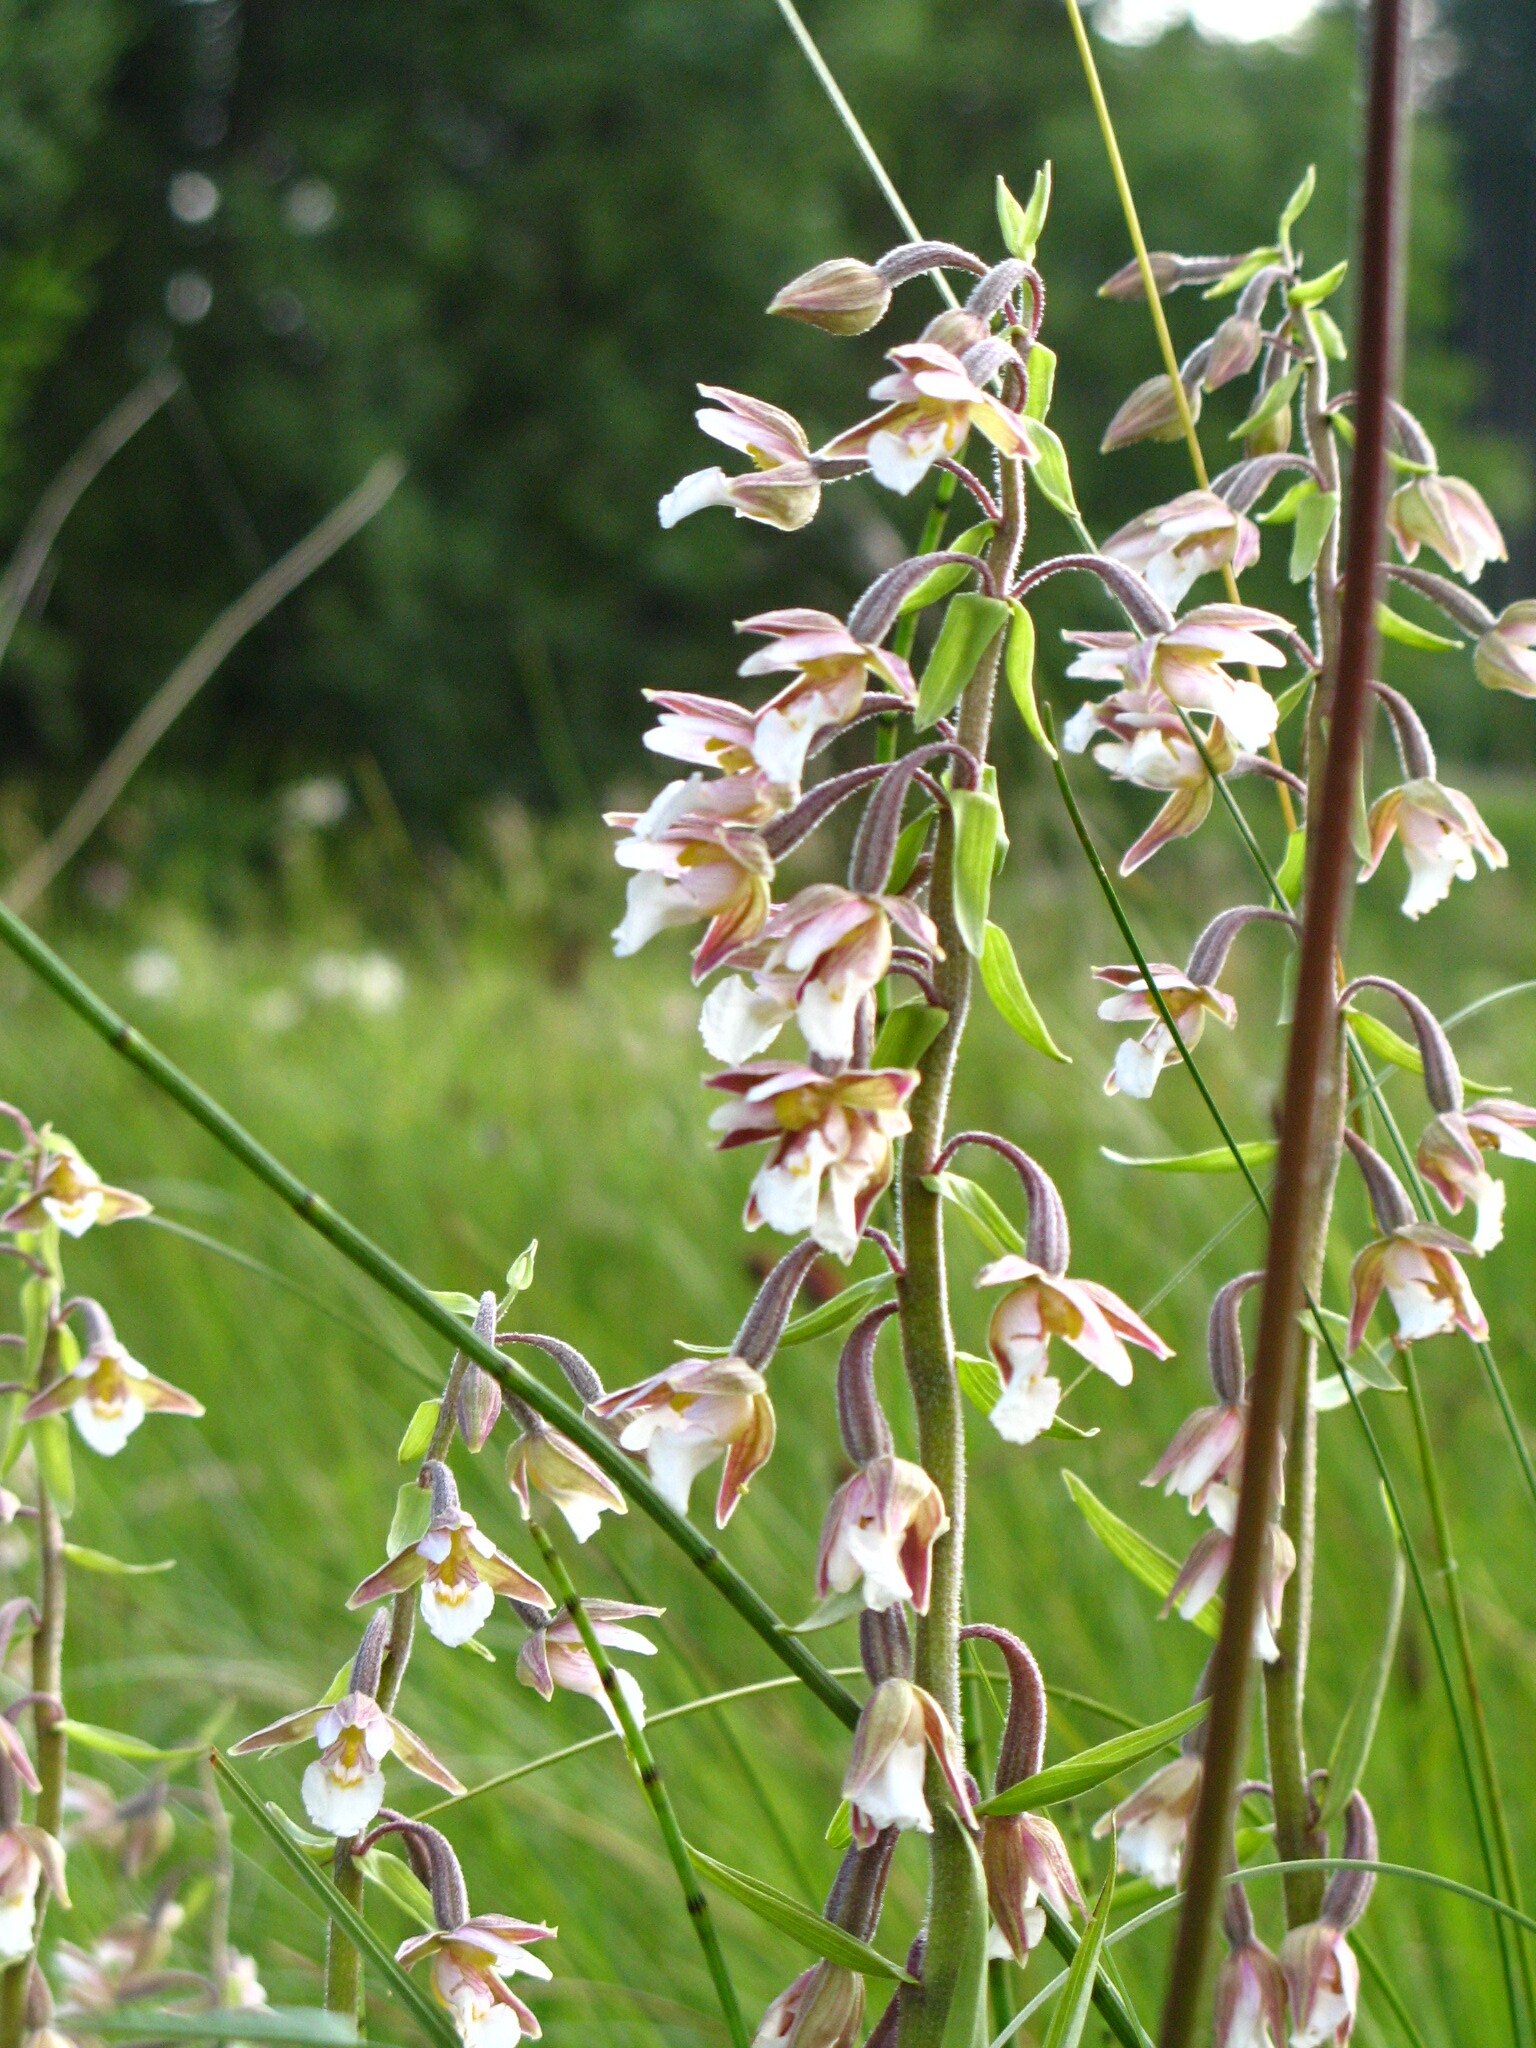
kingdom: Plantae
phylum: Tracheophyta
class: Liliopsida
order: Asparagales
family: Orchidaceae
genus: Epipactis
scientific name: Epipactis palustris
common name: Marsh helleborine
